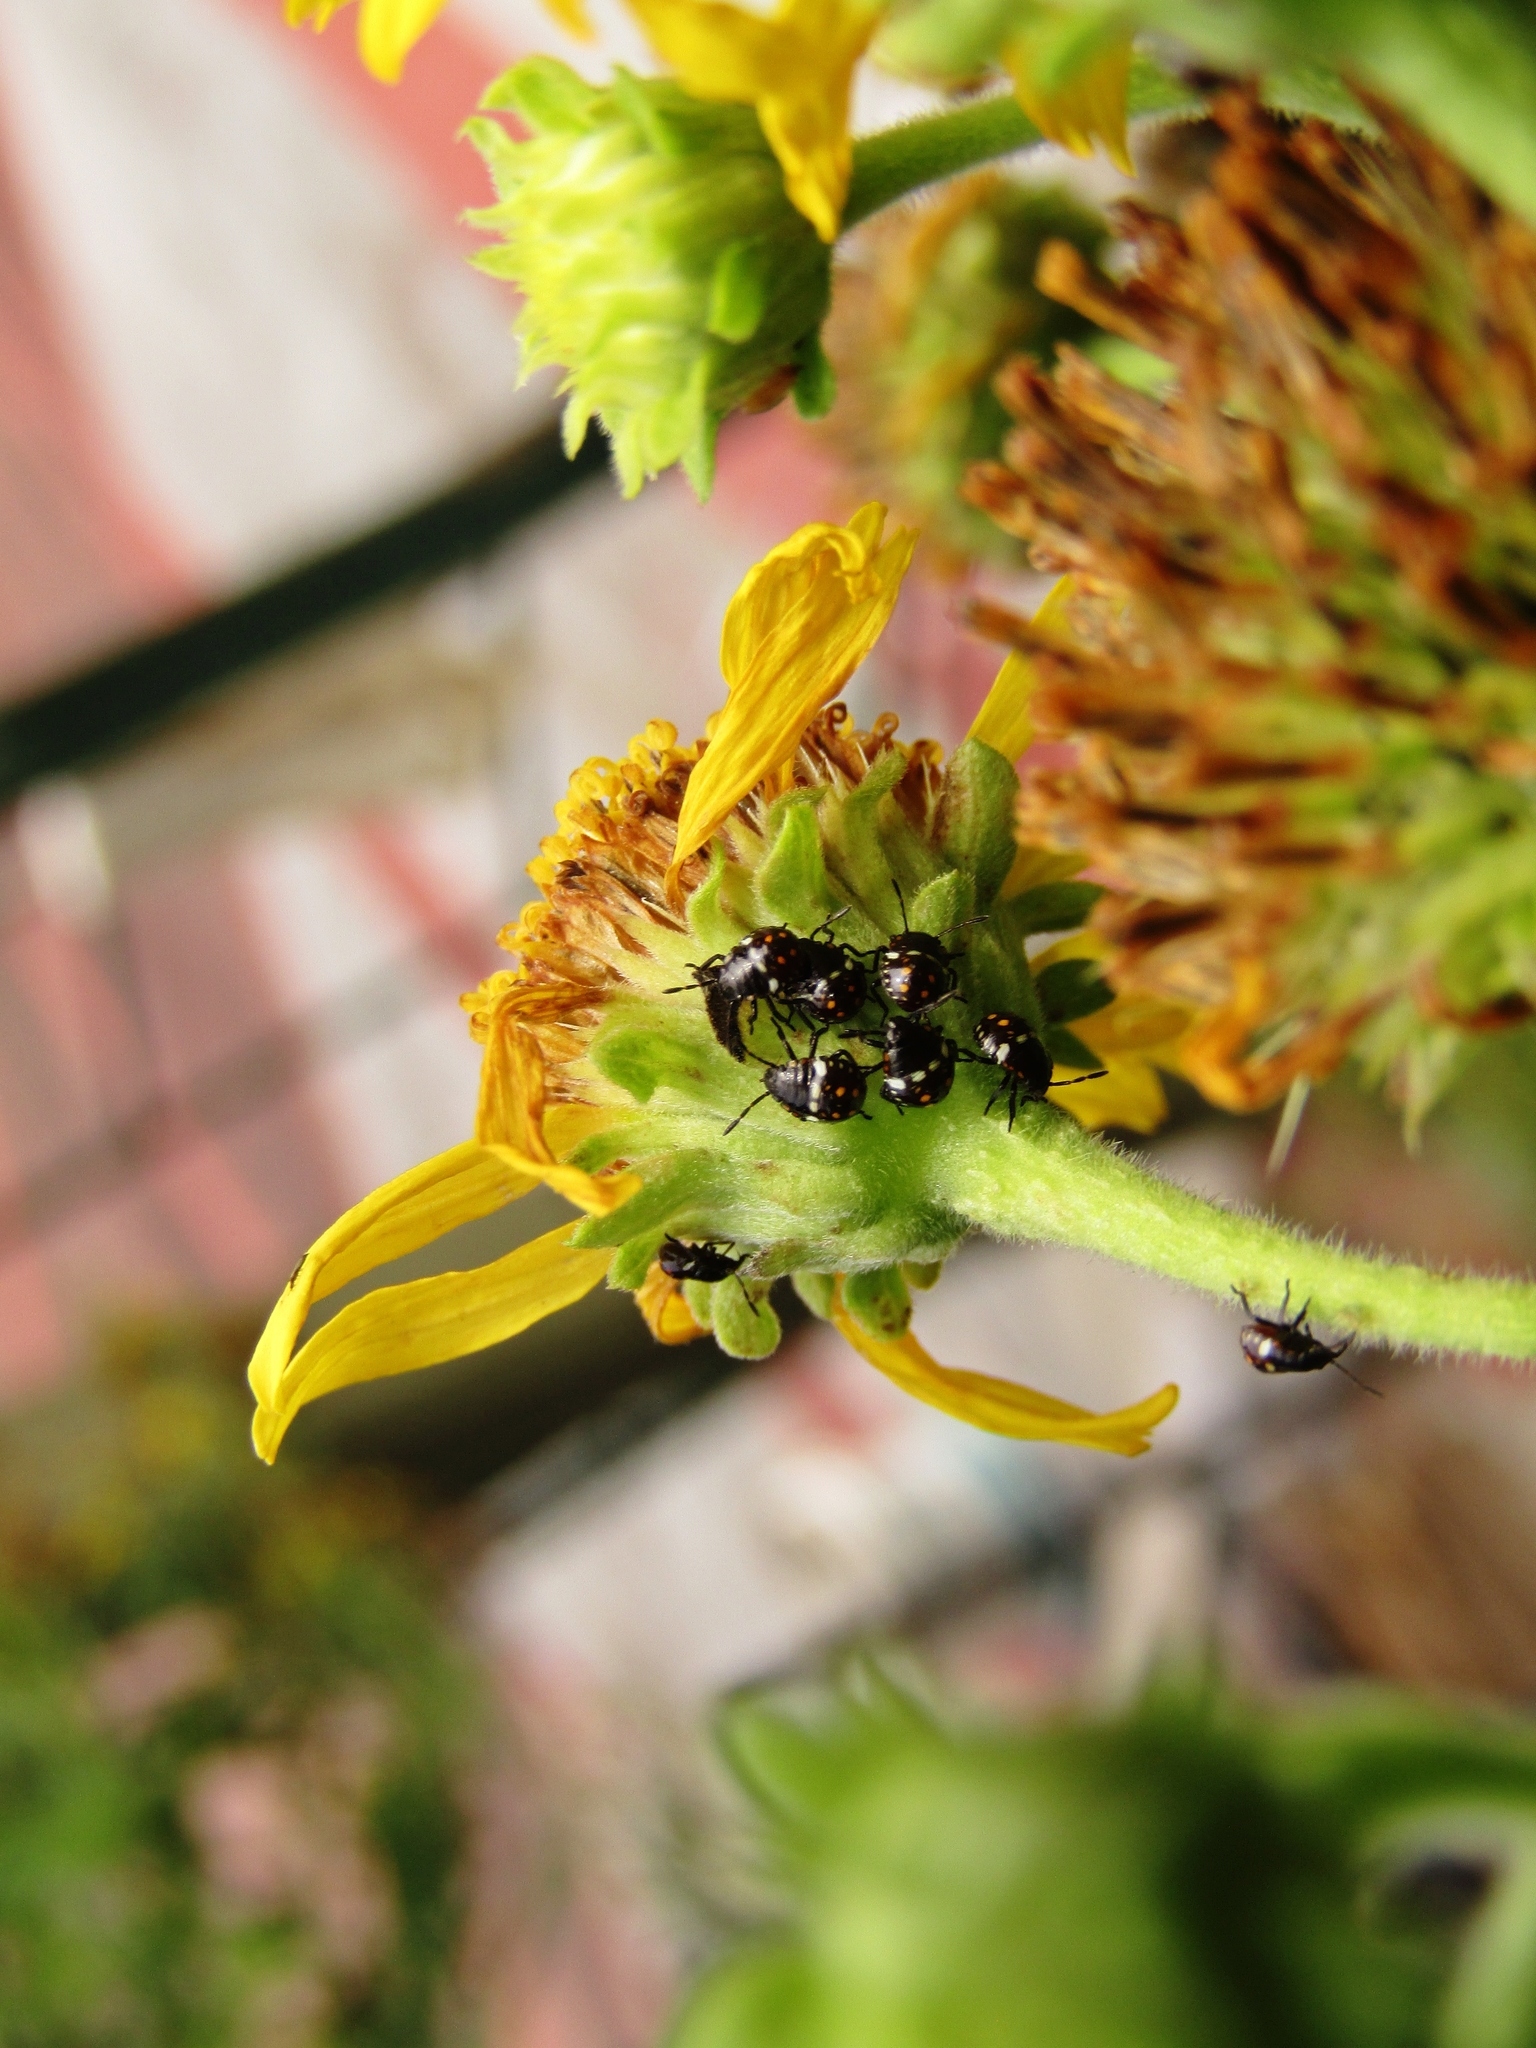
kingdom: Animalia
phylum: Arthropoda
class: Insecta
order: Hemiptera
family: Pentatomidae
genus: Nezara
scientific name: Nezara viridula
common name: Southern green stink bug
